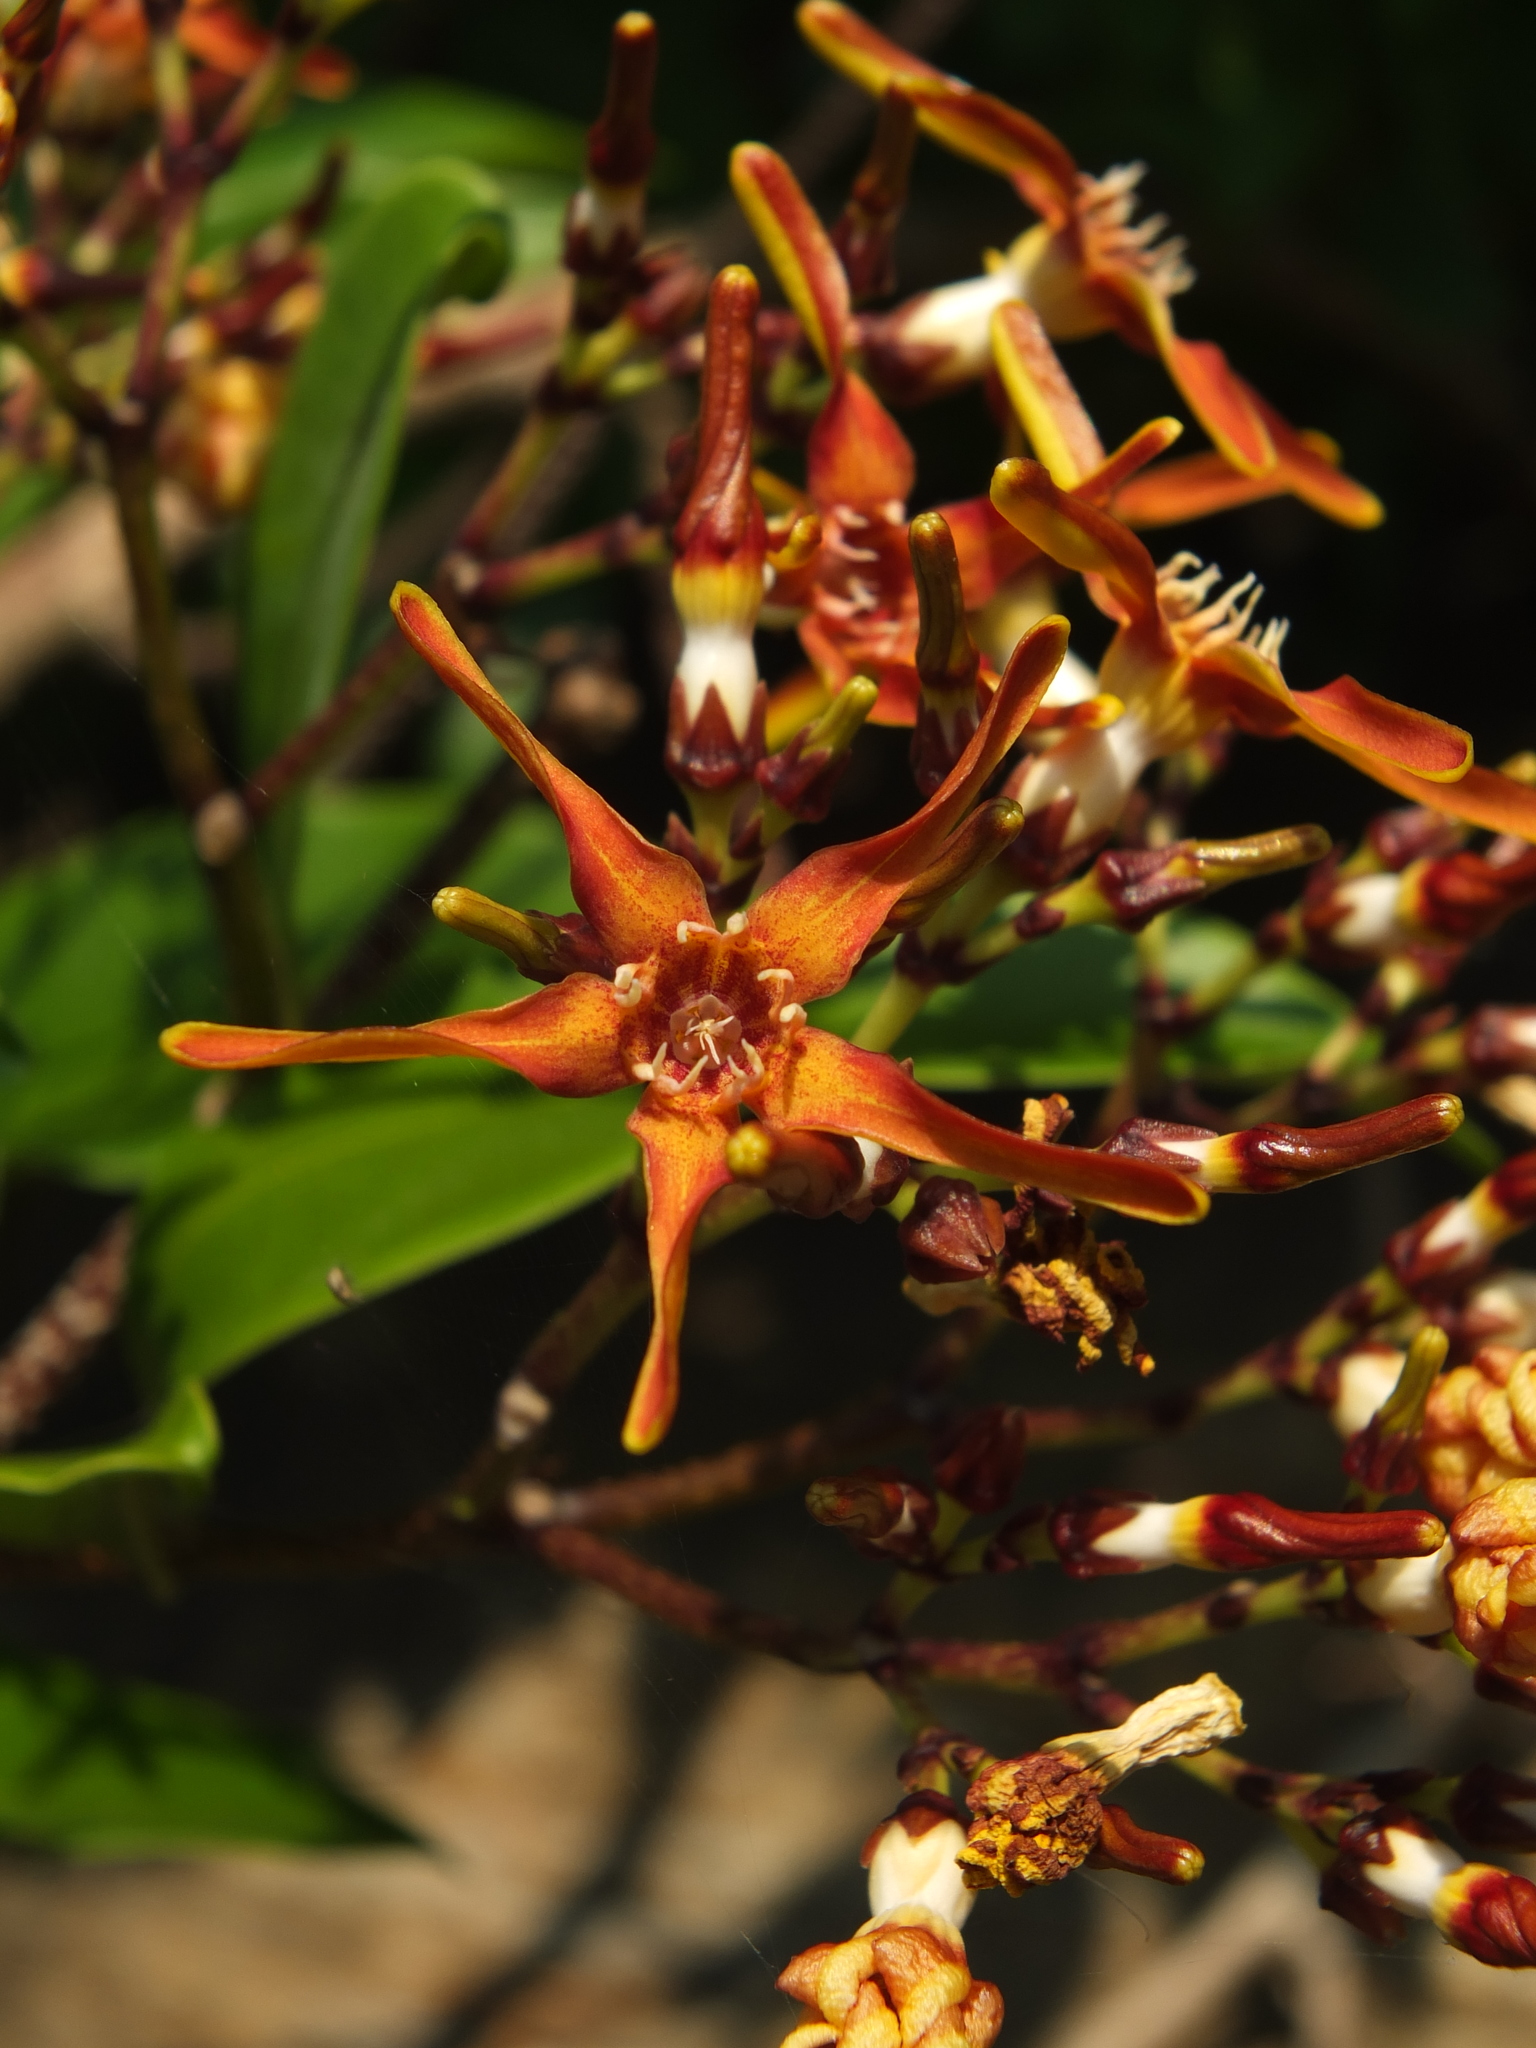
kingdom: Plantae
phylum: Tracheophyta
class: Magnoliopsida
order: Gentianales
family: Apocynaceae
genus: Strophanthus
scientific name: Strophanthus wightianus
